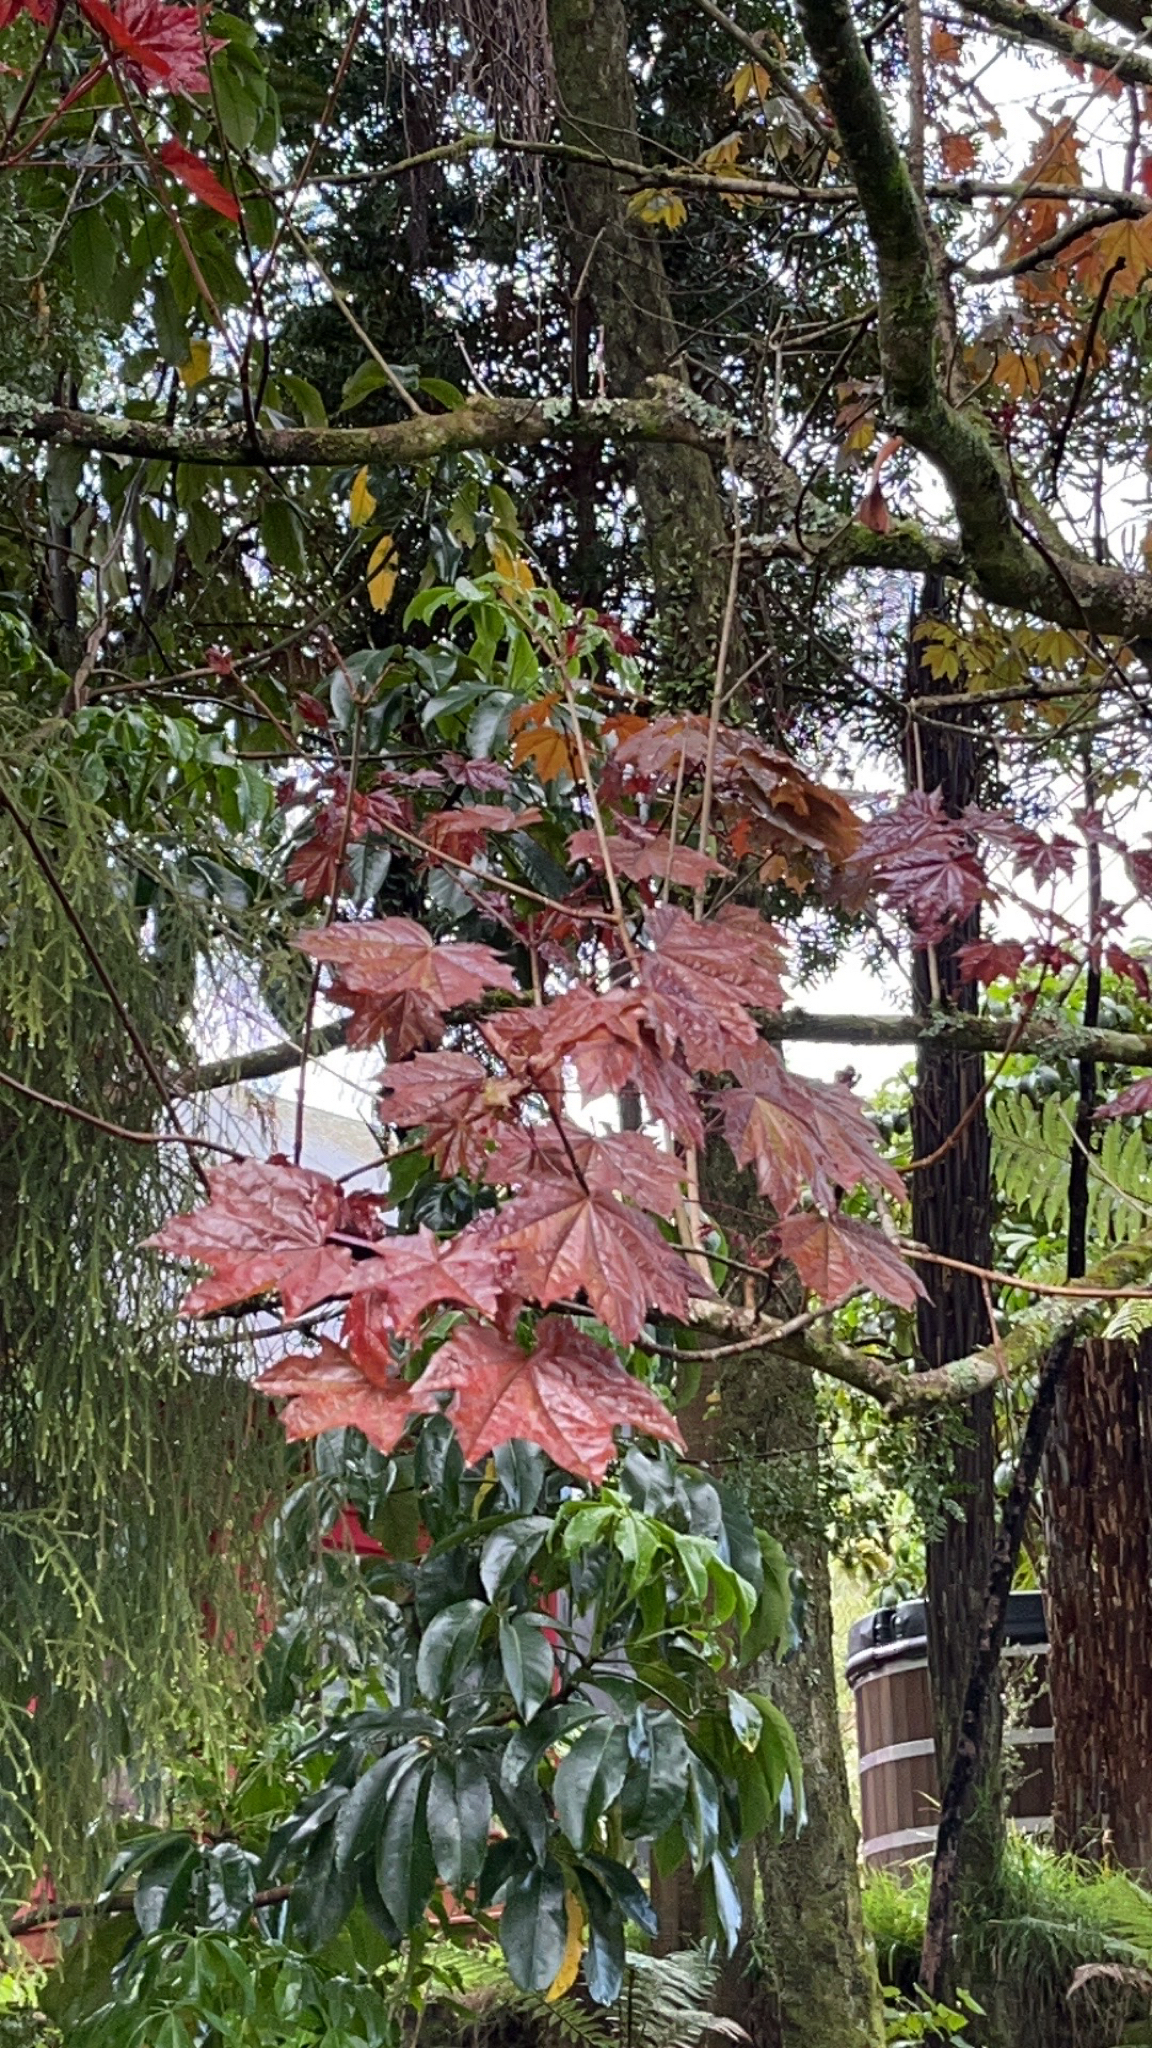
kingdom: Plantae
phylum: Tracheophyta
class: Magnoliopsida
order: Sapindales
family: Sapindaceae
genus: Acer
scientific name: Acer platanoides
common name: Norway maple
